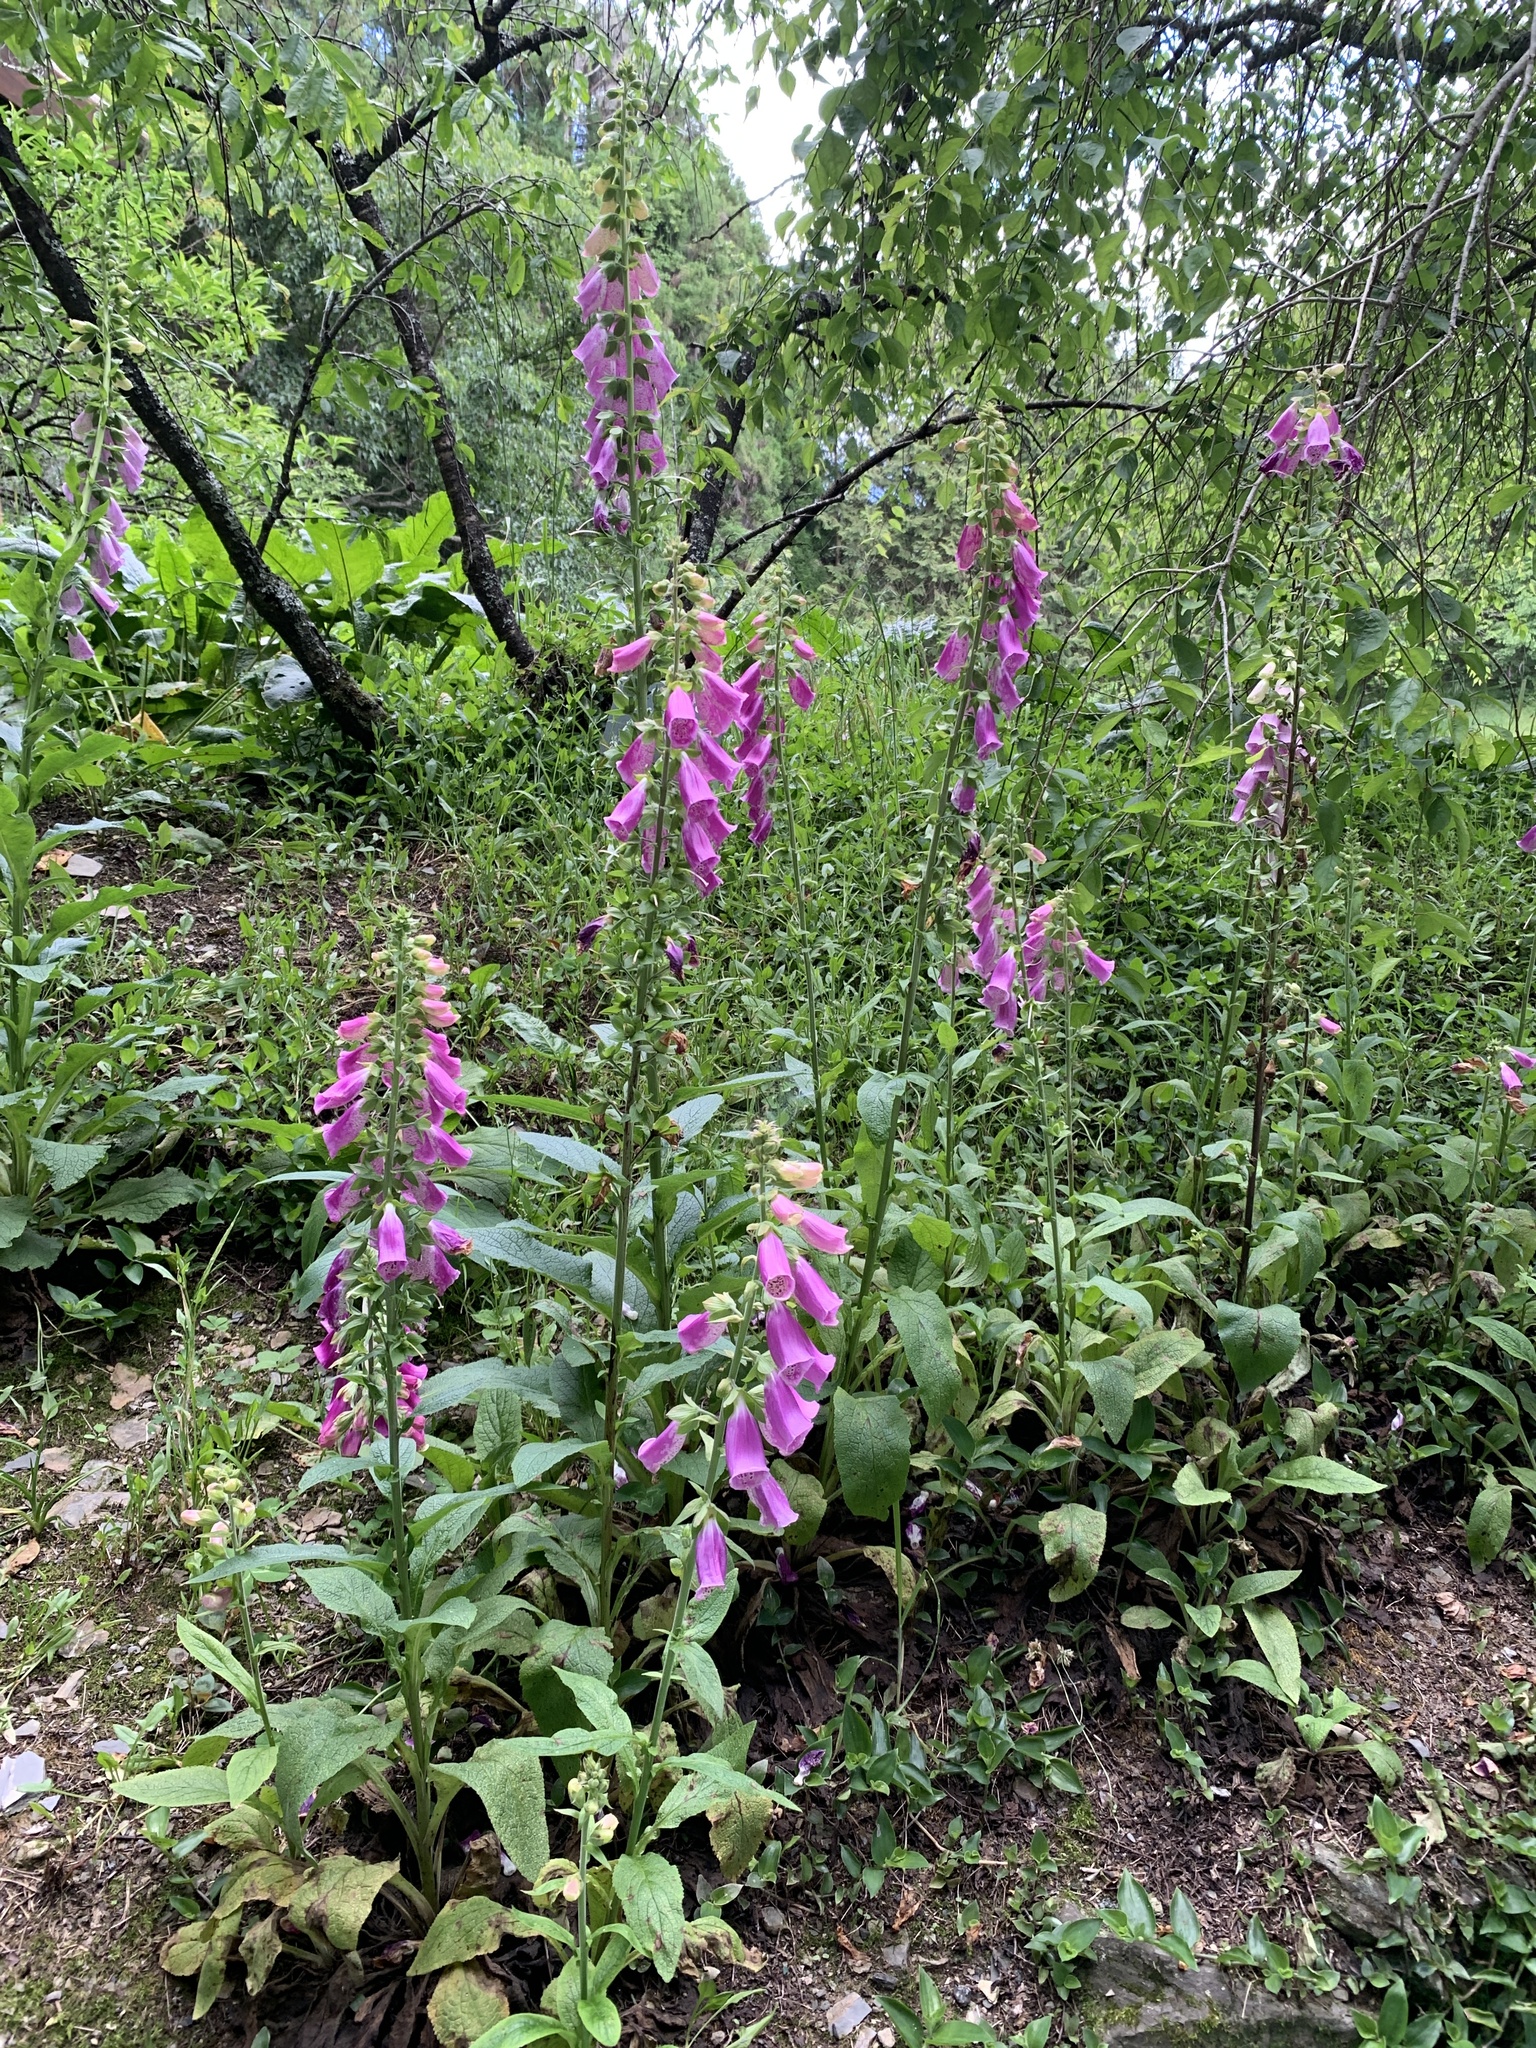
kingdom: Plantae
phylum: Tracheophyta
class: Magnoliopsida
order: Lamiales
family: Plantaginaceae
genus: Digitalis
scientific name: Digitalis purpurea
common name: Foxglove
